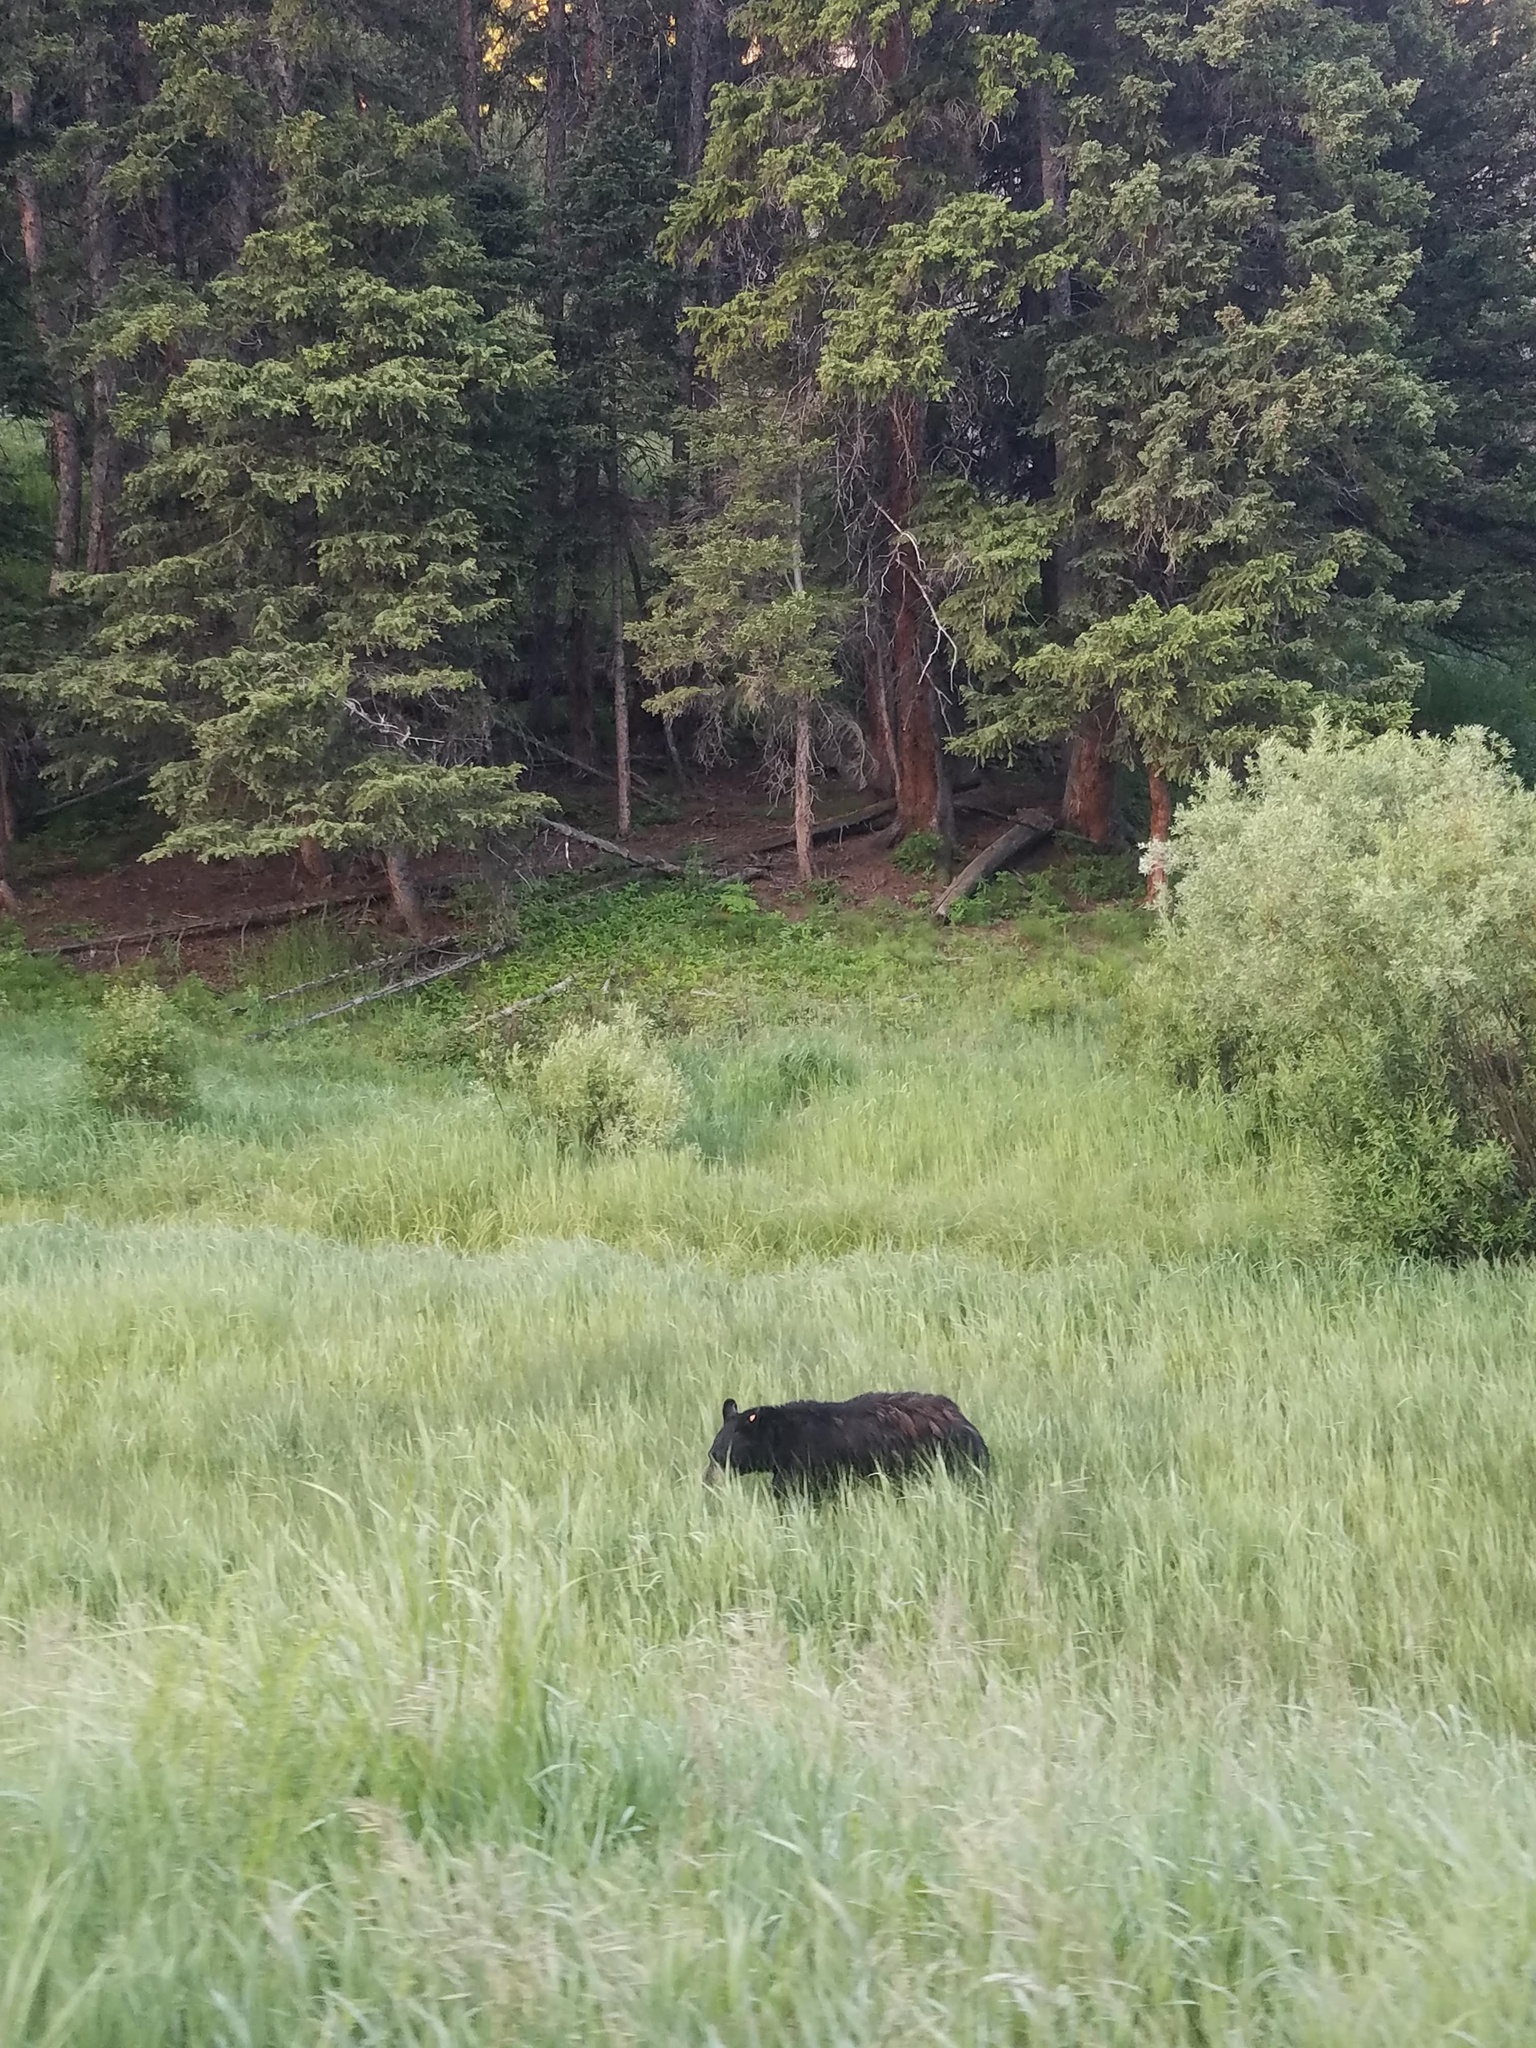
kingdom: Animalia
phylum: Chordata
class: Mammalia
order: Carnivora
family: Ursidae
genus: Ursus
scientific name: Ursus americanus
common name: American black bear
